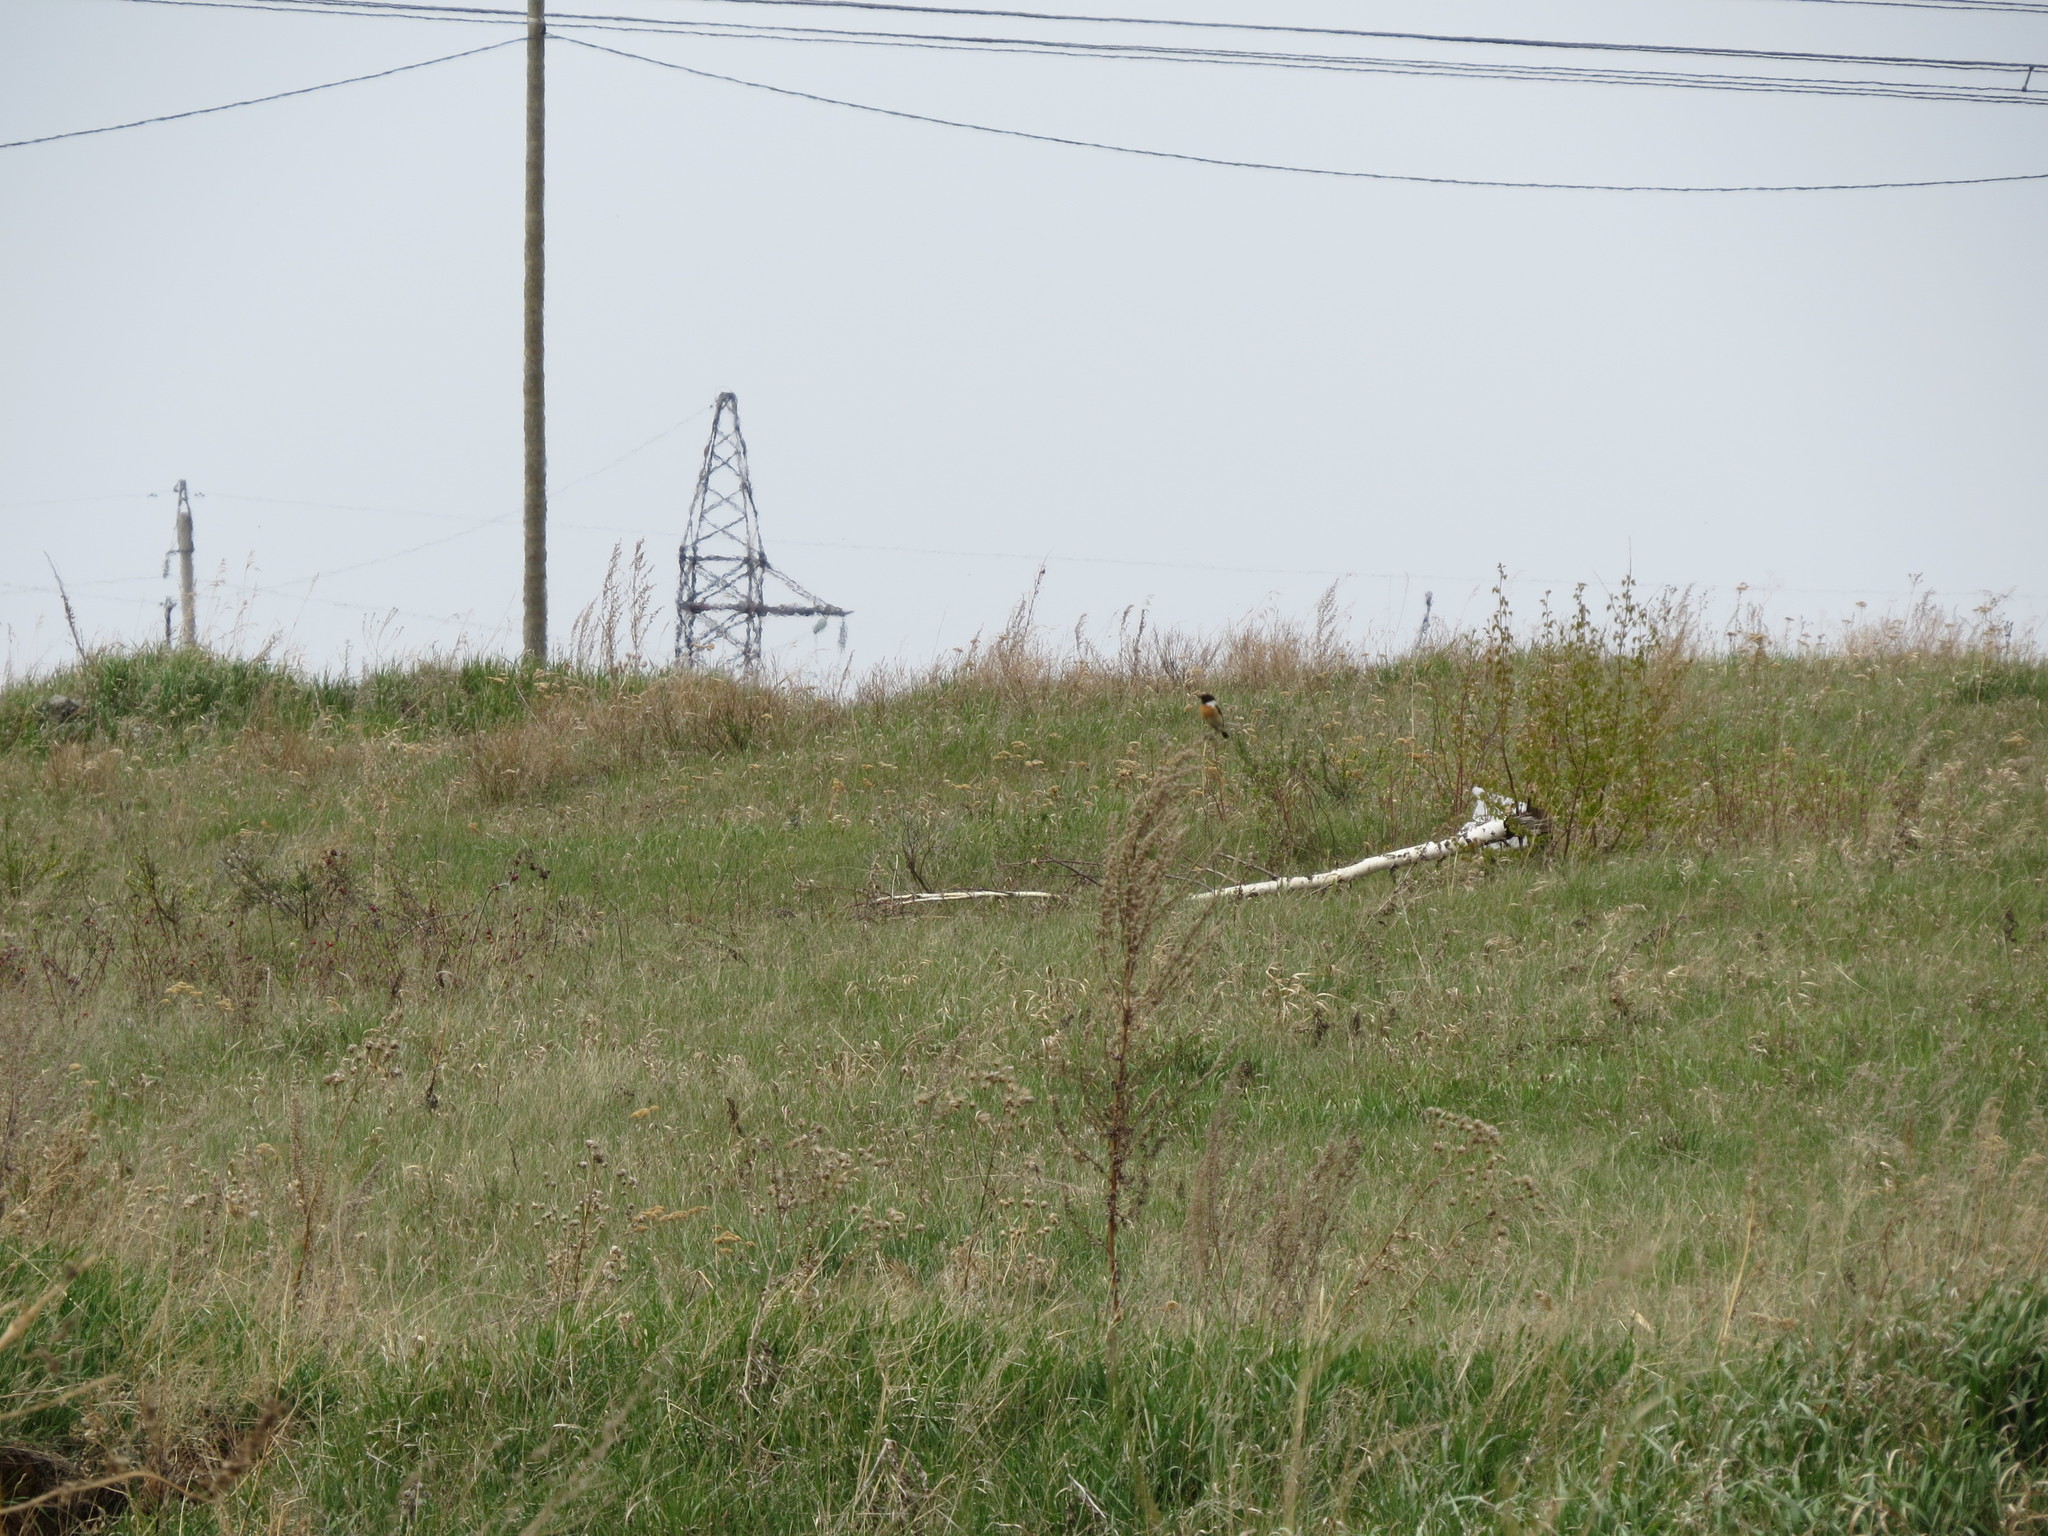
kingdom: Animalia
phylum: Chordata
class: Aves
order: Passeriformes
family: Muscicapidae
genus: Saxicola
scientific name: Saxicola maurus
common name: Siberian stonechat
